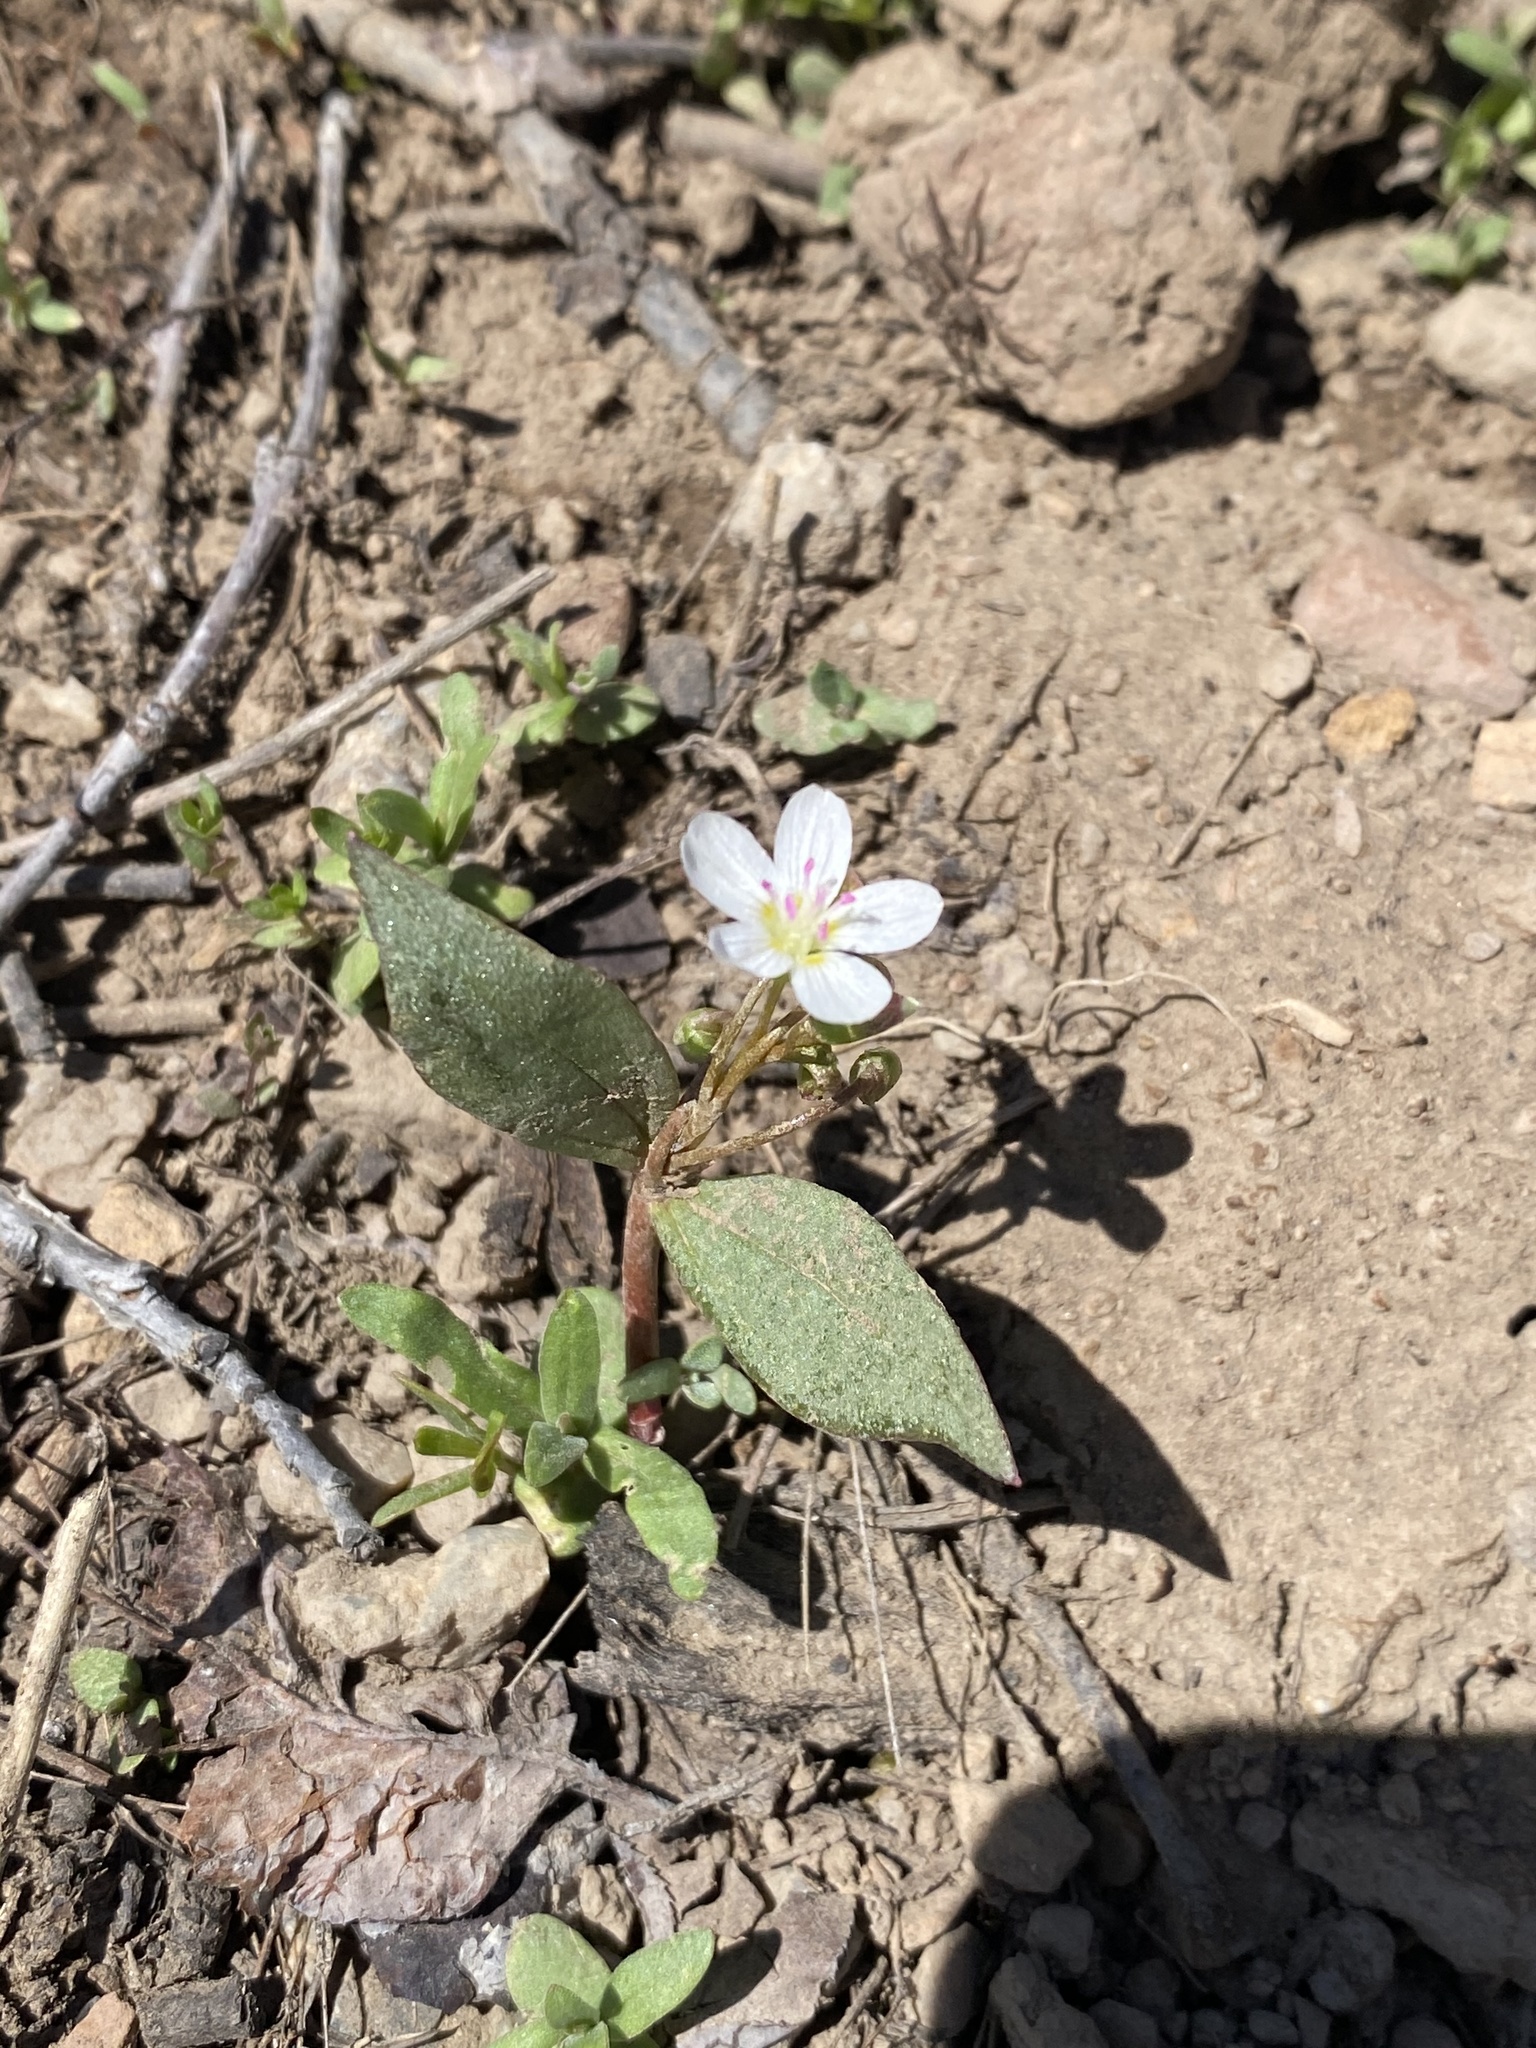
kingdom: Plantae
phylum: Tracheophyta
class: Magnoliopsida
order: Caryophyllales
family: Montiaceae
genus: Claytonia
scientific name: Claytonia lanceolata
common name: Western spring-beauty
